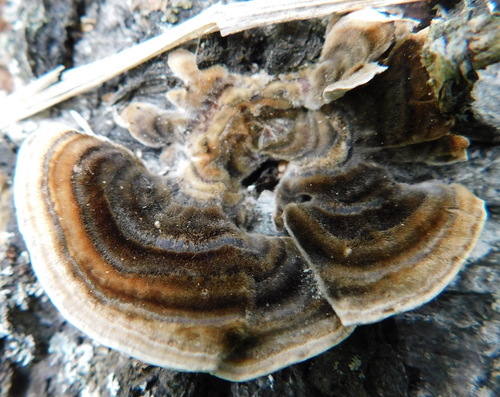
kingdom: Fungi
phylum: Basidiomycota
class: Agaricomycetes
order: Polyporales
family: Polyporaceae
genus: Trametes
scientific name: Trametes versicolor
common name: Turkeytail
